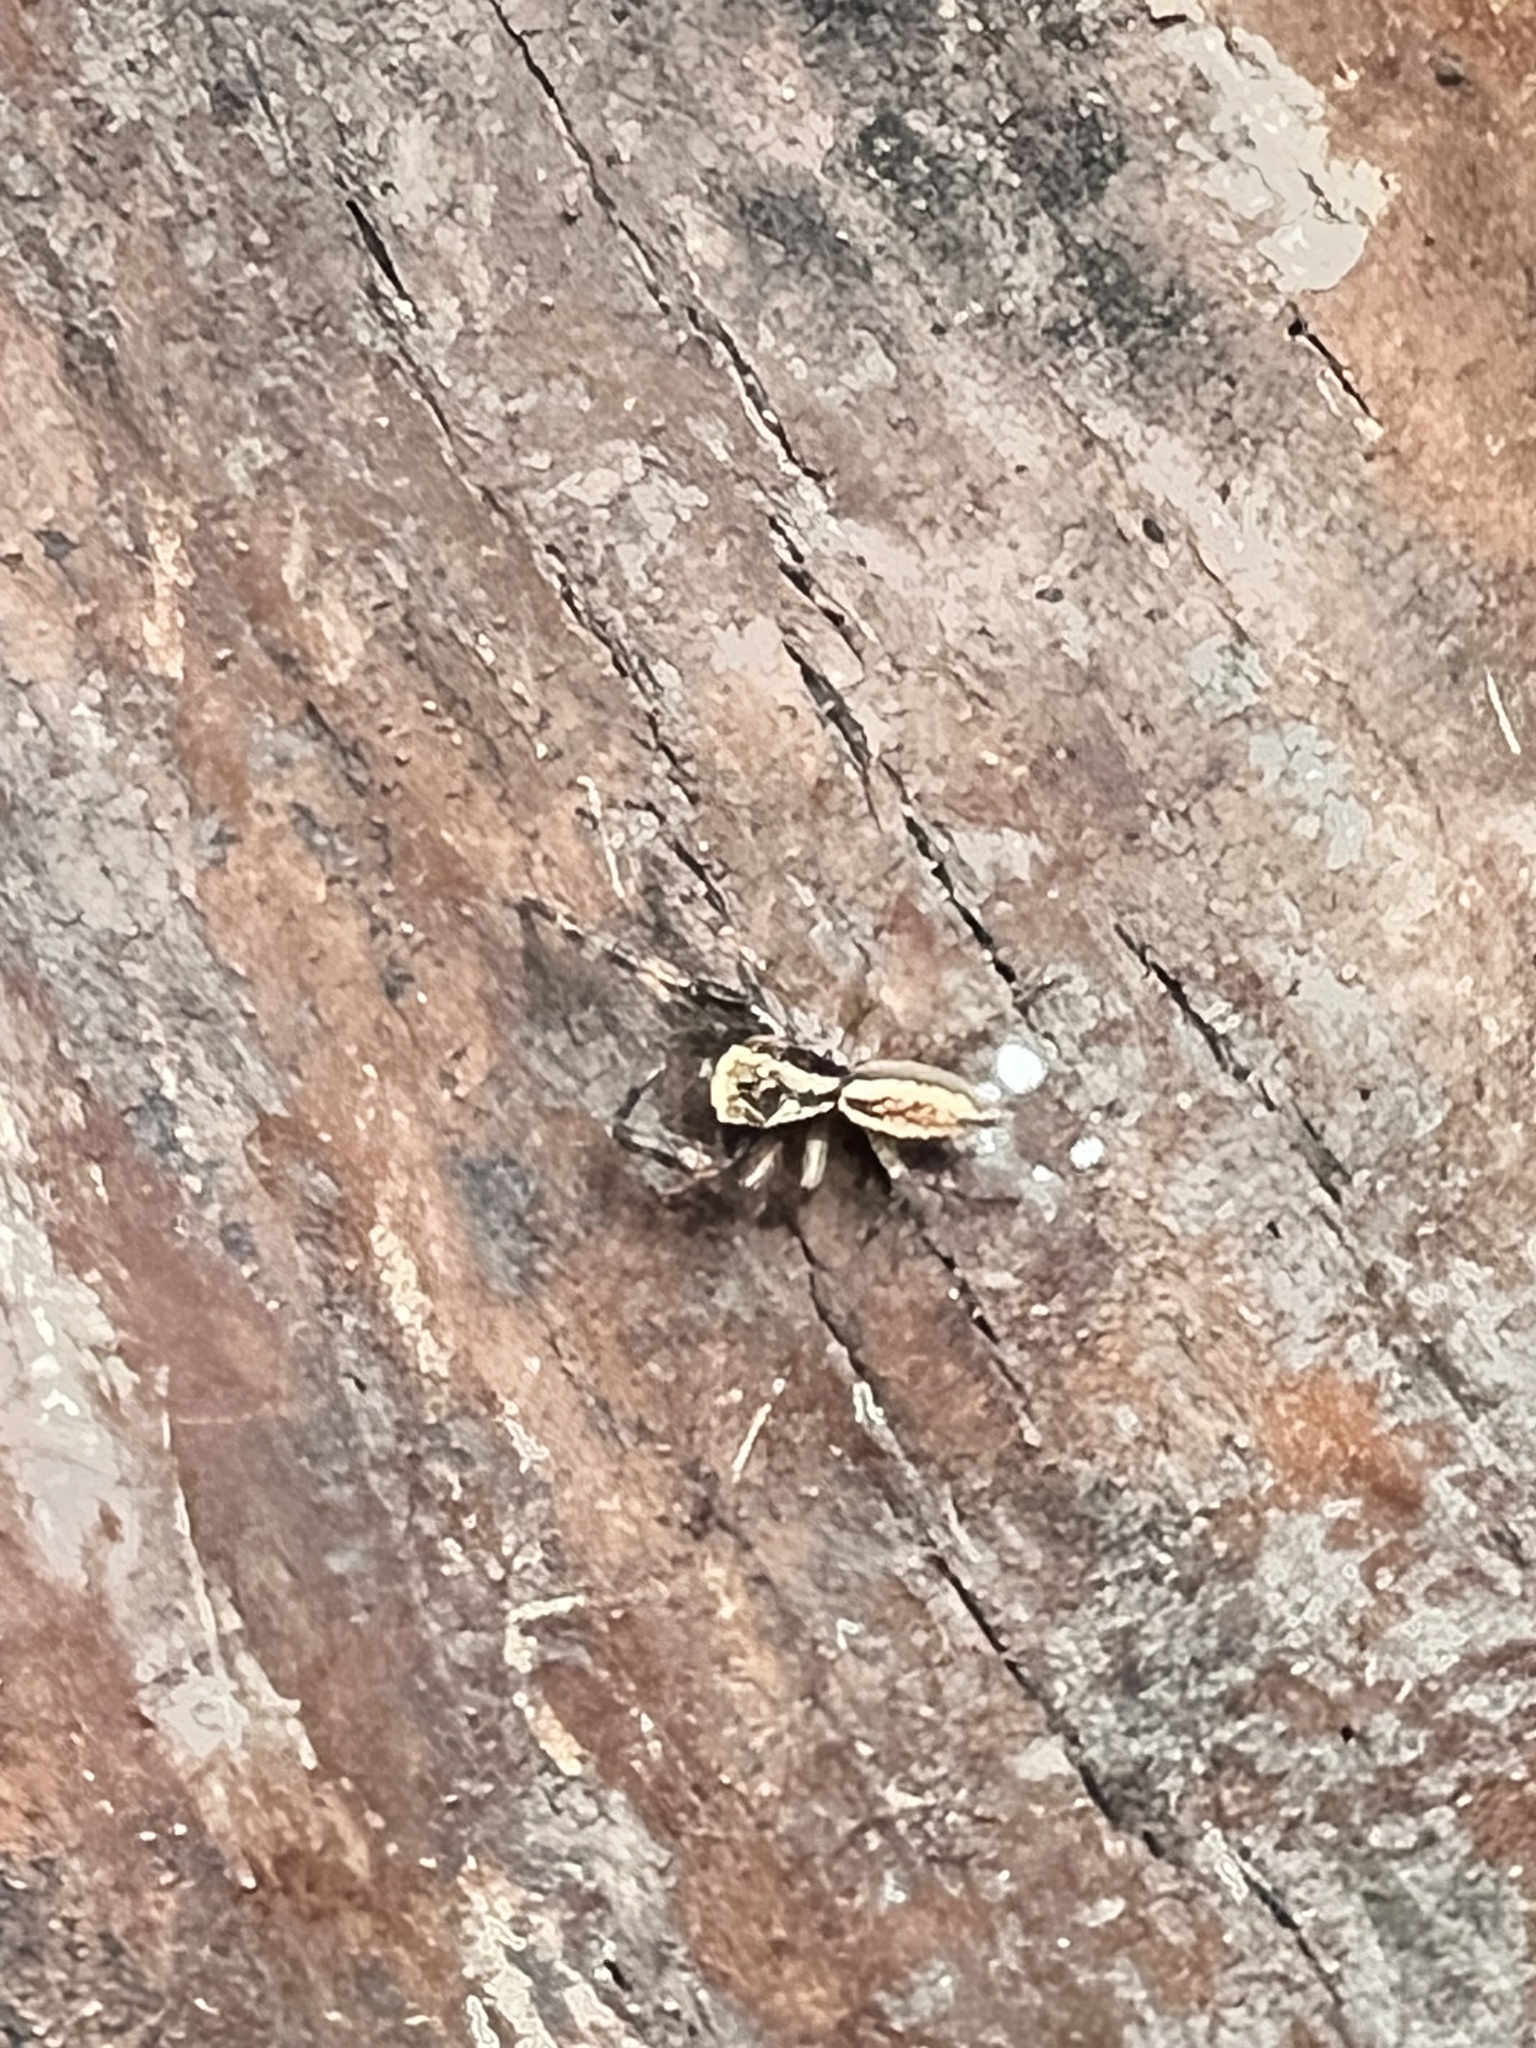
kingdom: Animalia
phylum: Arthropoda
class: Arachnida
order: Araneae
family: Salticidae
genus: Trite
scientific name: Trite auricoma
